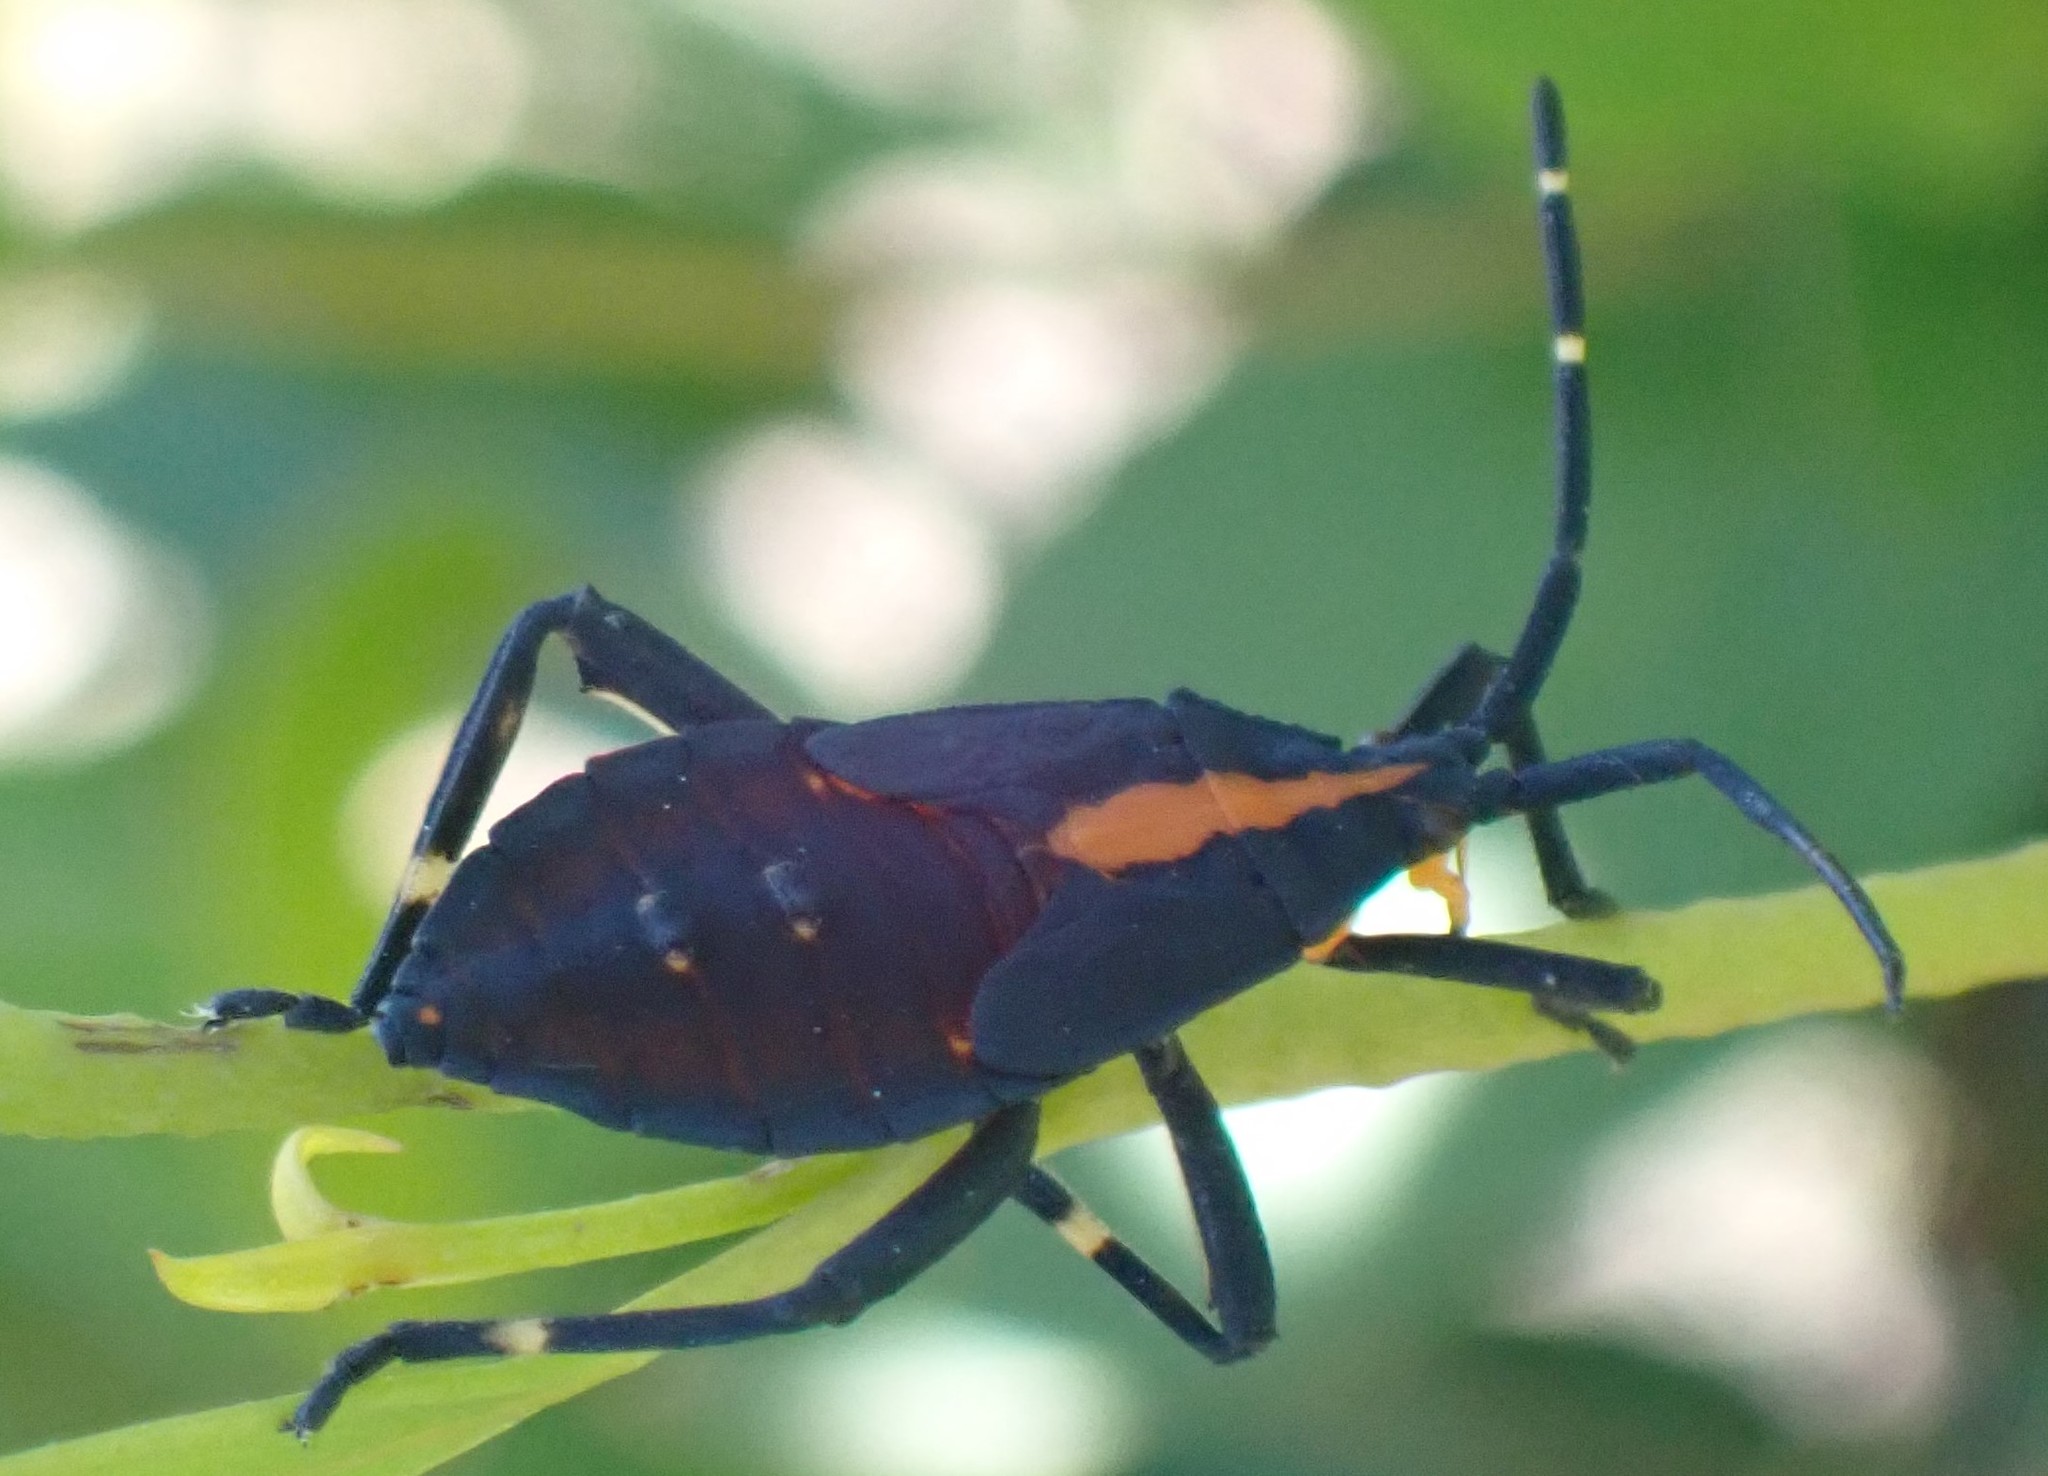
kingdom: Animalia
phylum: Arthropoda
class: Insecta
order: Hemiptera
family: Coreidae
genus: Amorbus
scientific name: Amorbus obscuricornis
